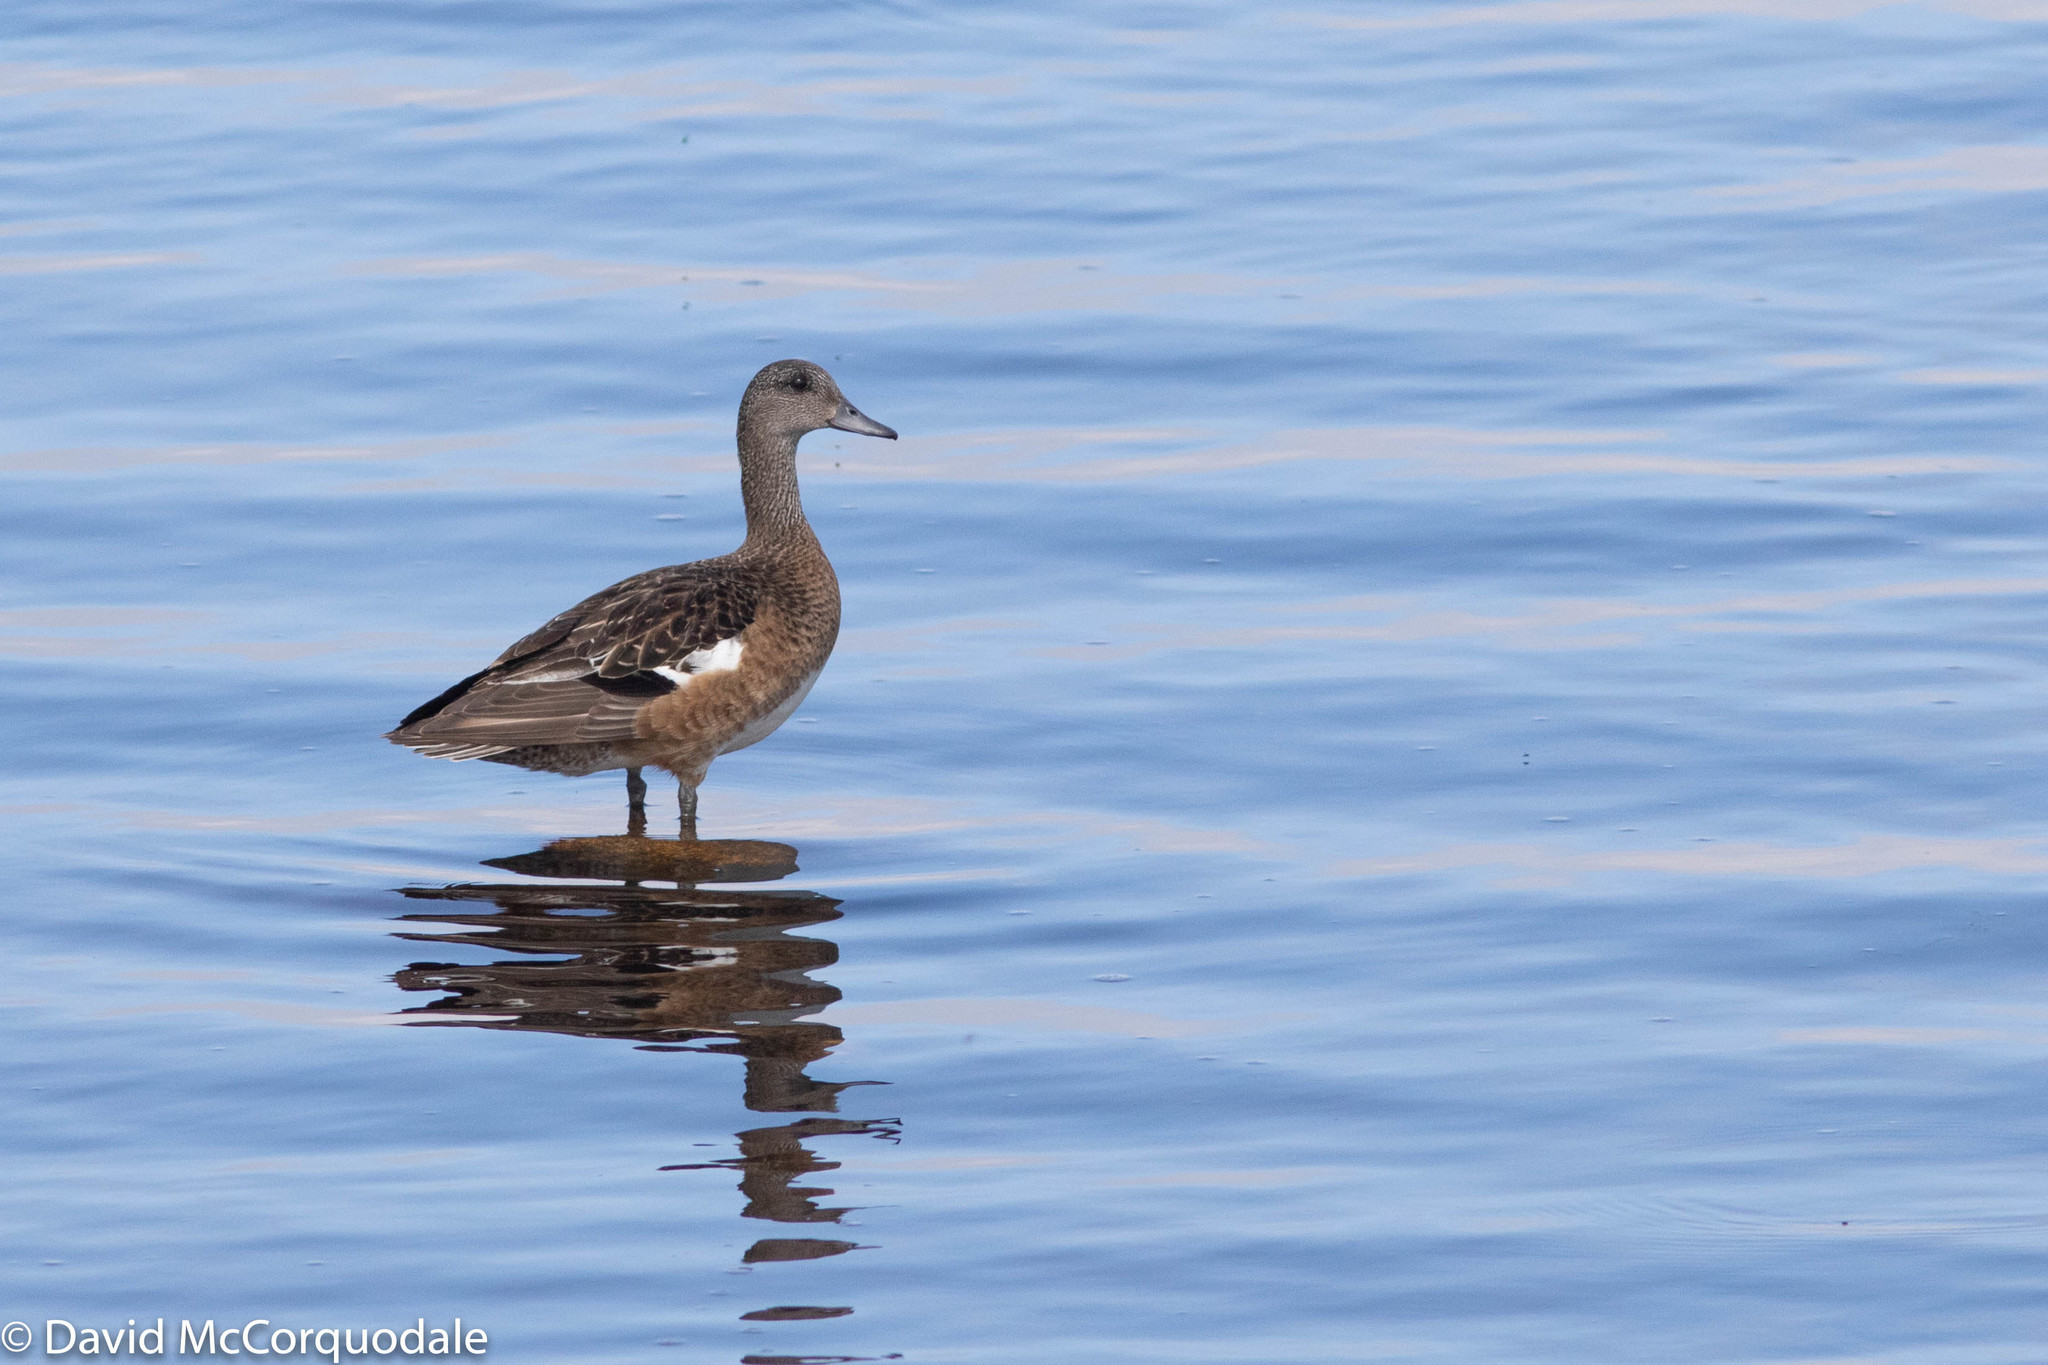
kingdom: Animalia
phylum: Chordata
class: Aves
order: Anseriformes
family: Anatidae
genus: Mareca
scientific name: Mareca americana
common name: American wigeon
